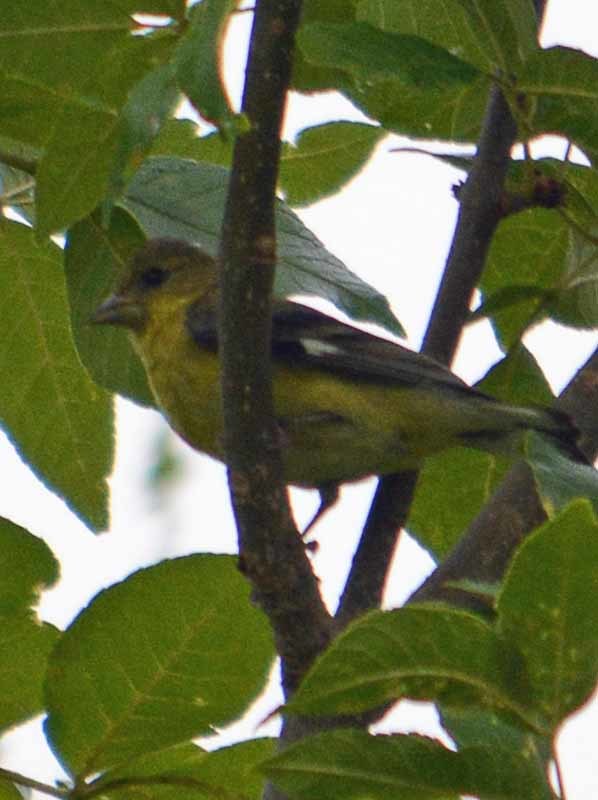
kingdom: Animalia
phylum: Chordata
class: Aves
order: Passeriformes
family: Fringillidae
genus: Spinus
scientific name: Spinus psaltria
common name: Lesser goldfinch
